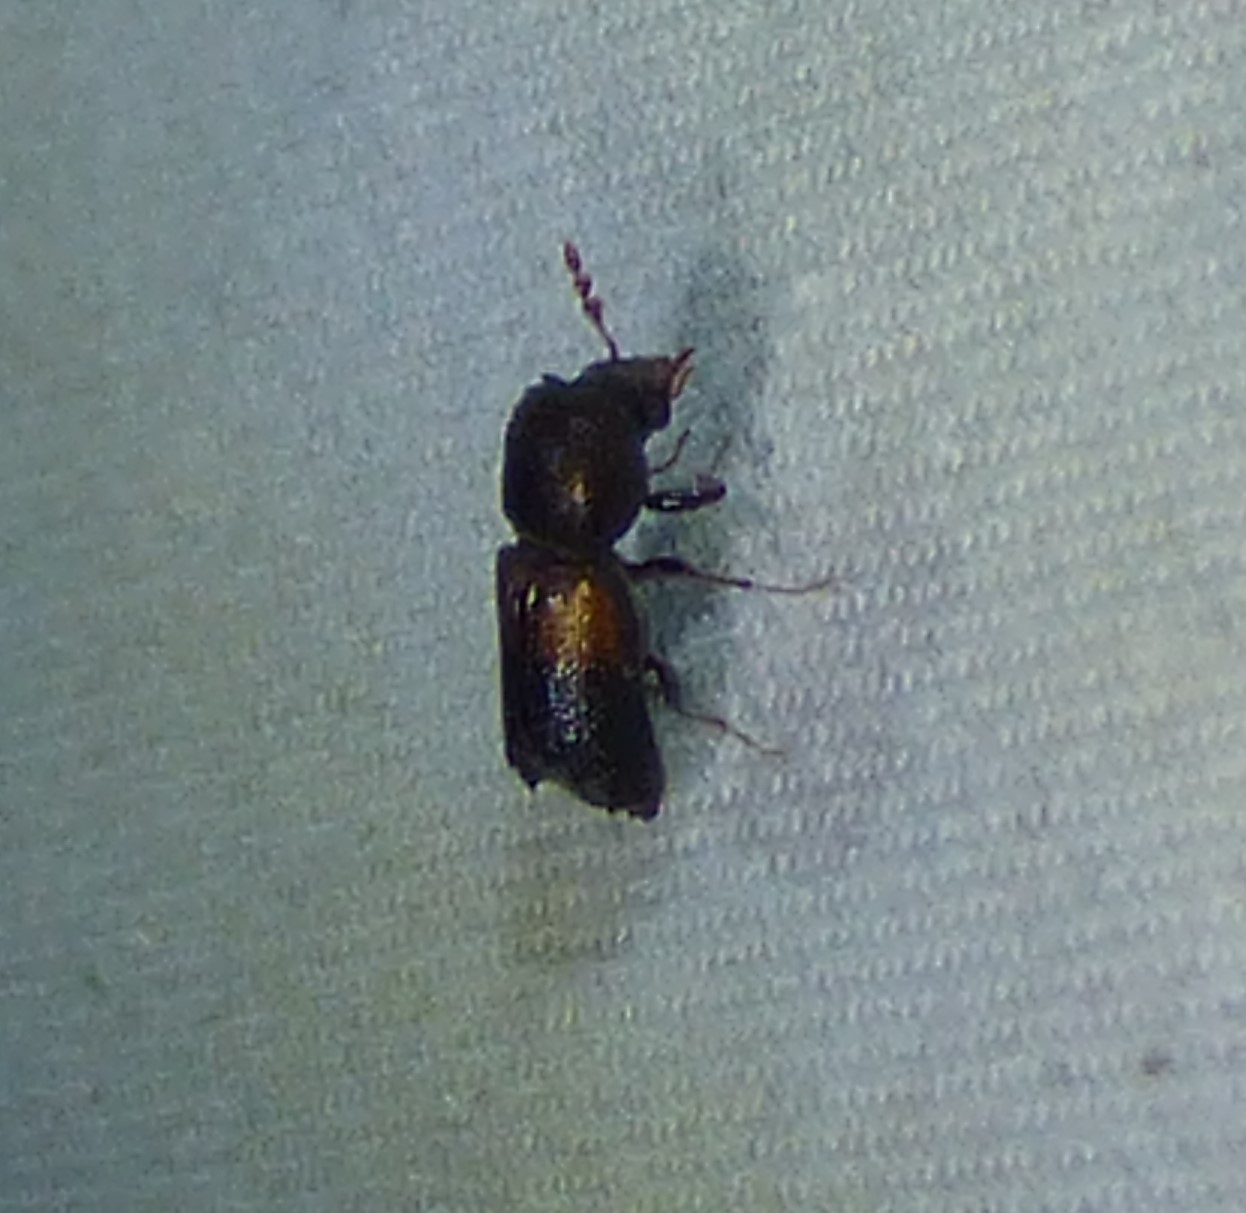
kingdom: Animalia
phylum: Arthropoda
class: Insecta
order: Coleoptera
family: Bostrichidae
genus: Xylobiops
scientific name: Xylobiops basilaris
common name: Red-shouldered bostrichid
